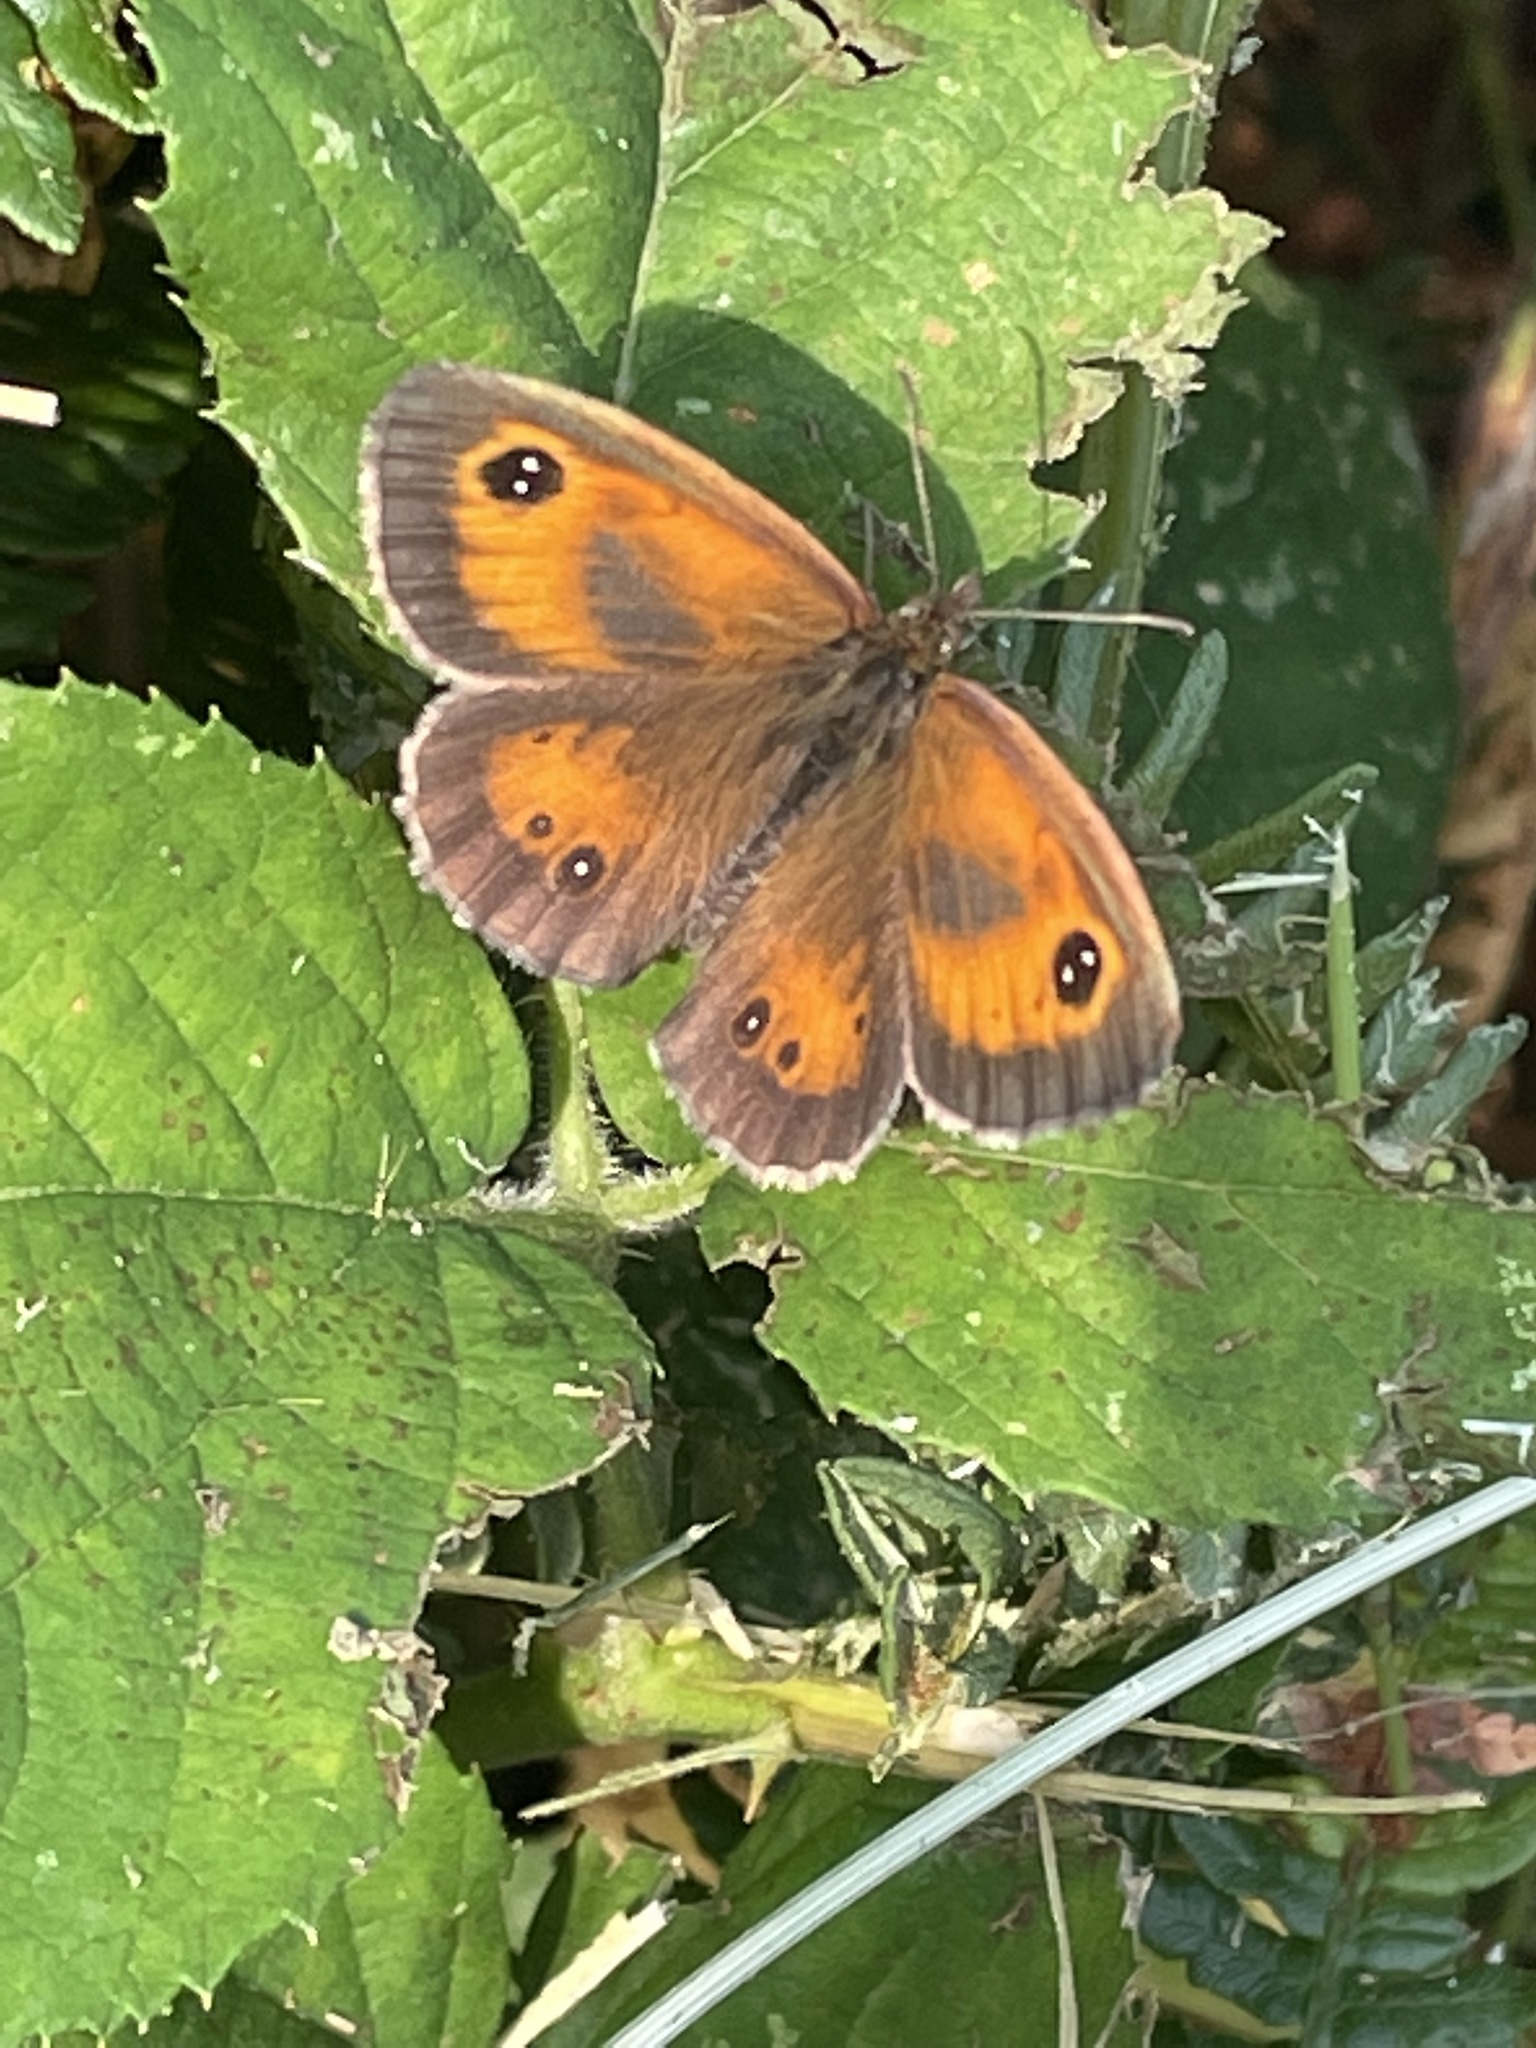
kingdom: Animalia
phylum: Arthropoda
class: Insecta
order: Lepidoptera
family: Nymphalidae
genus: Pyronia
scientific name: Pyronia tithonus
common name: Gatekeeper
